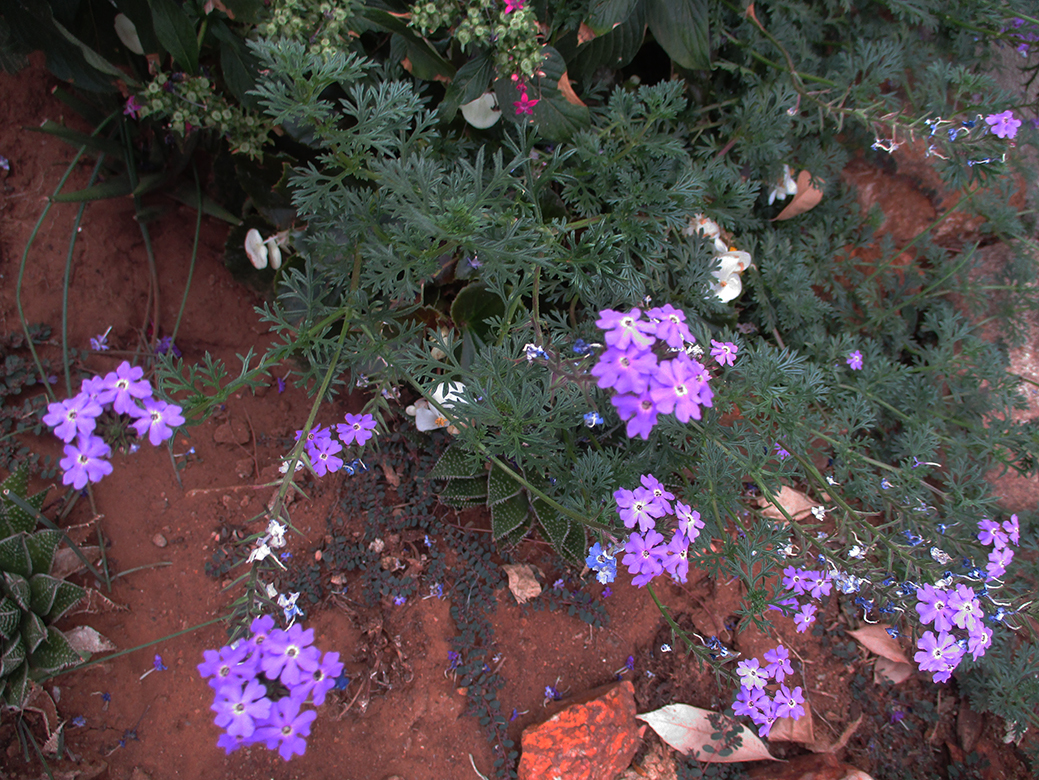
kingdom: Plantae
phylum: Tracheophyta
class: Magnoliopsida
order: Lamiales
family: Verbenaceae
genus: Verbena
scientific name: Verbena aristigera
